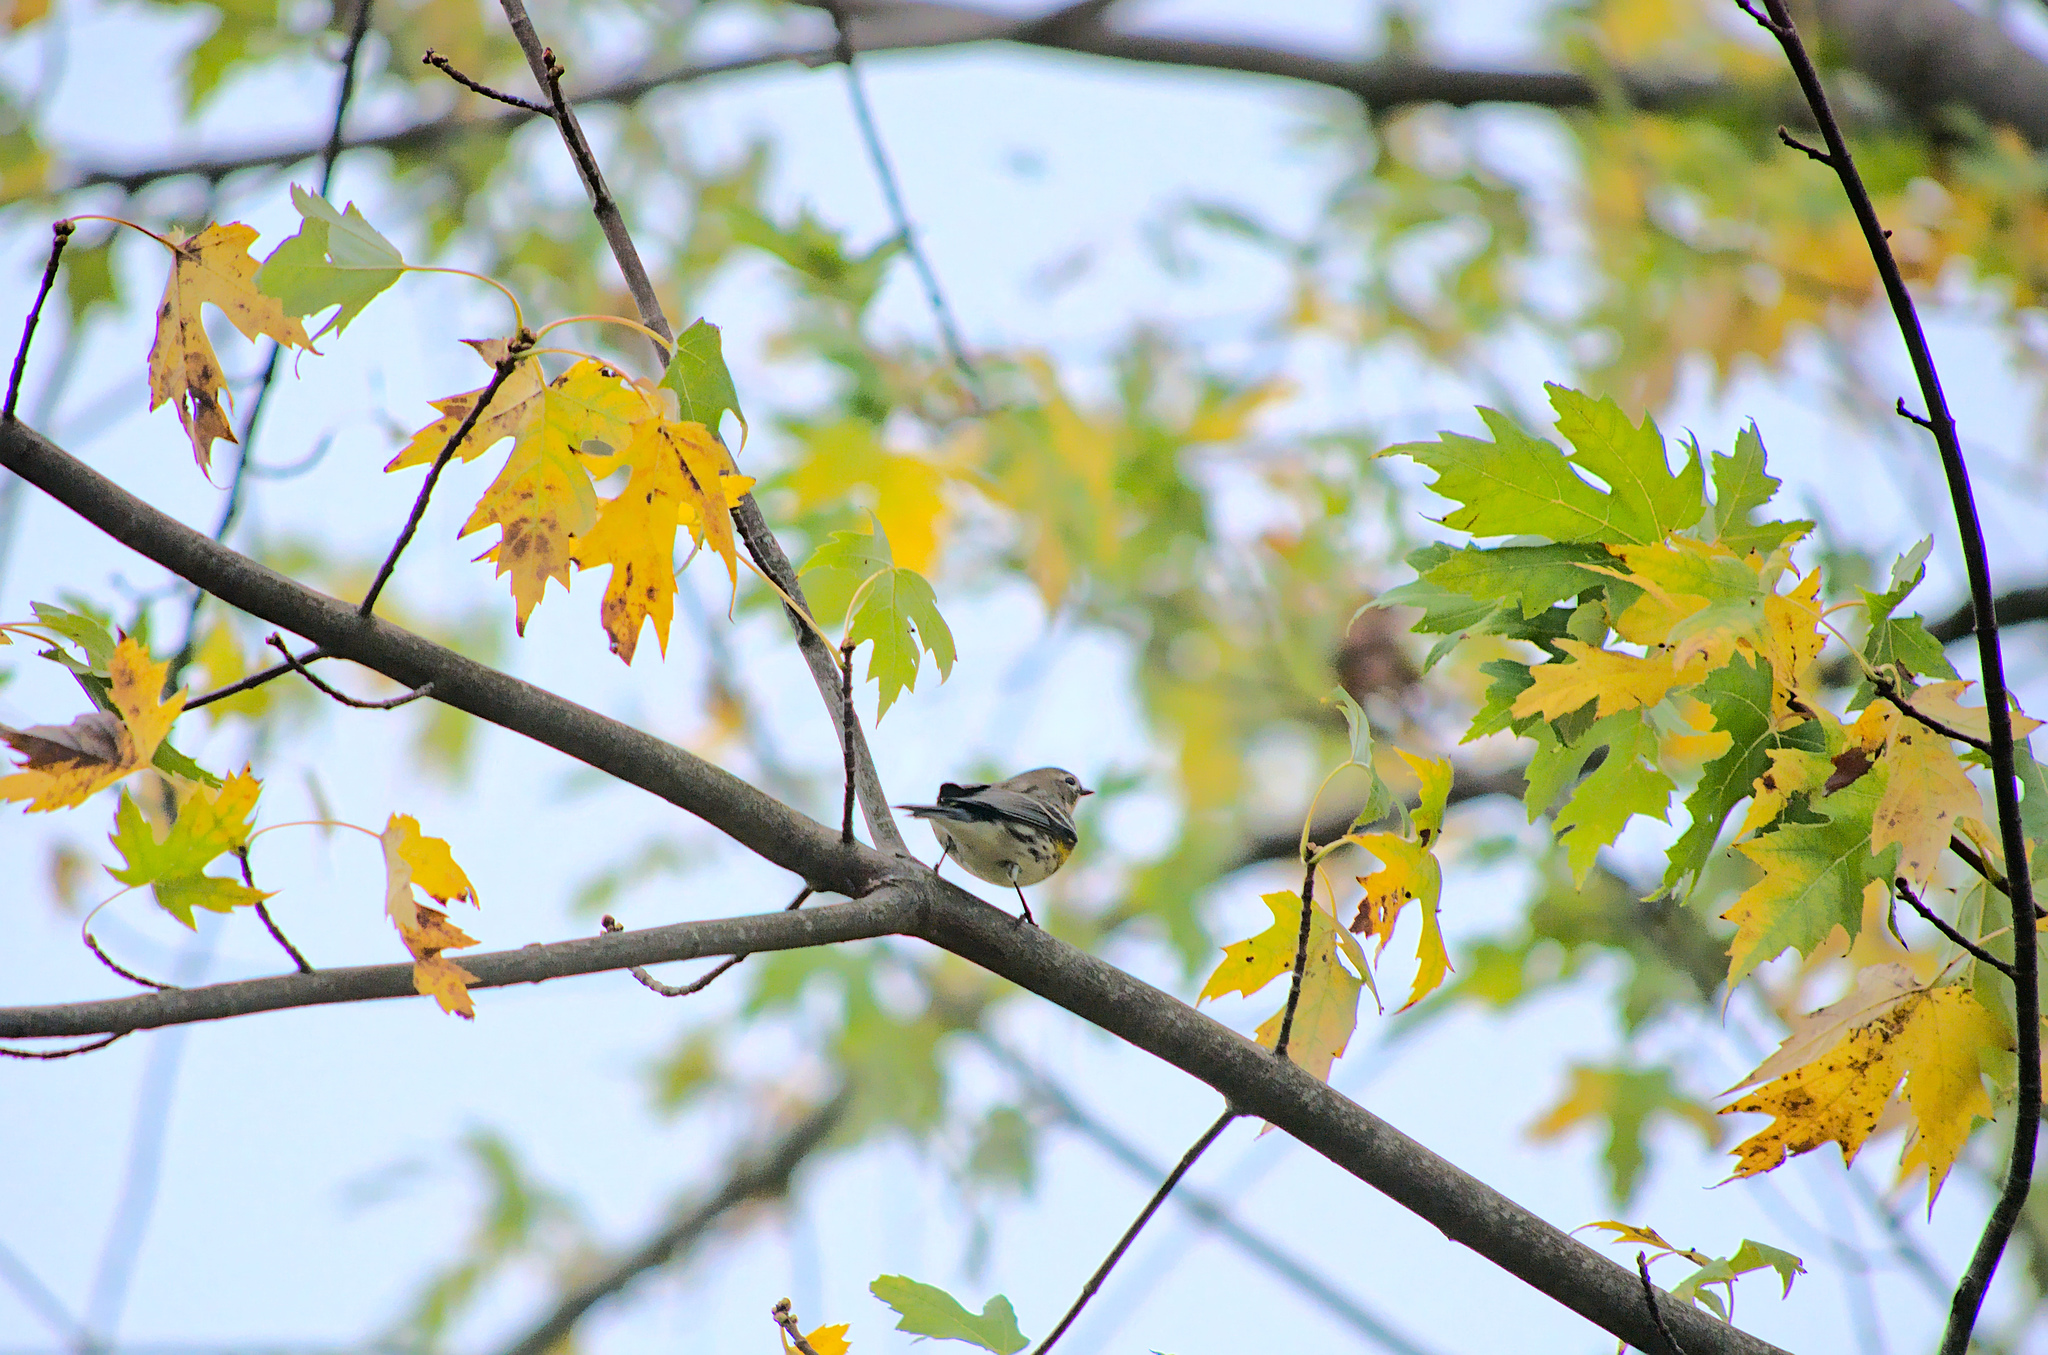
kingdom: Animalia
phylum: Chordata
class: Aves
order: Passeriformes
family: Parulidae
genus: Setophaga
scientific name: Setophaga coronata
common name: Myrtle warbler
